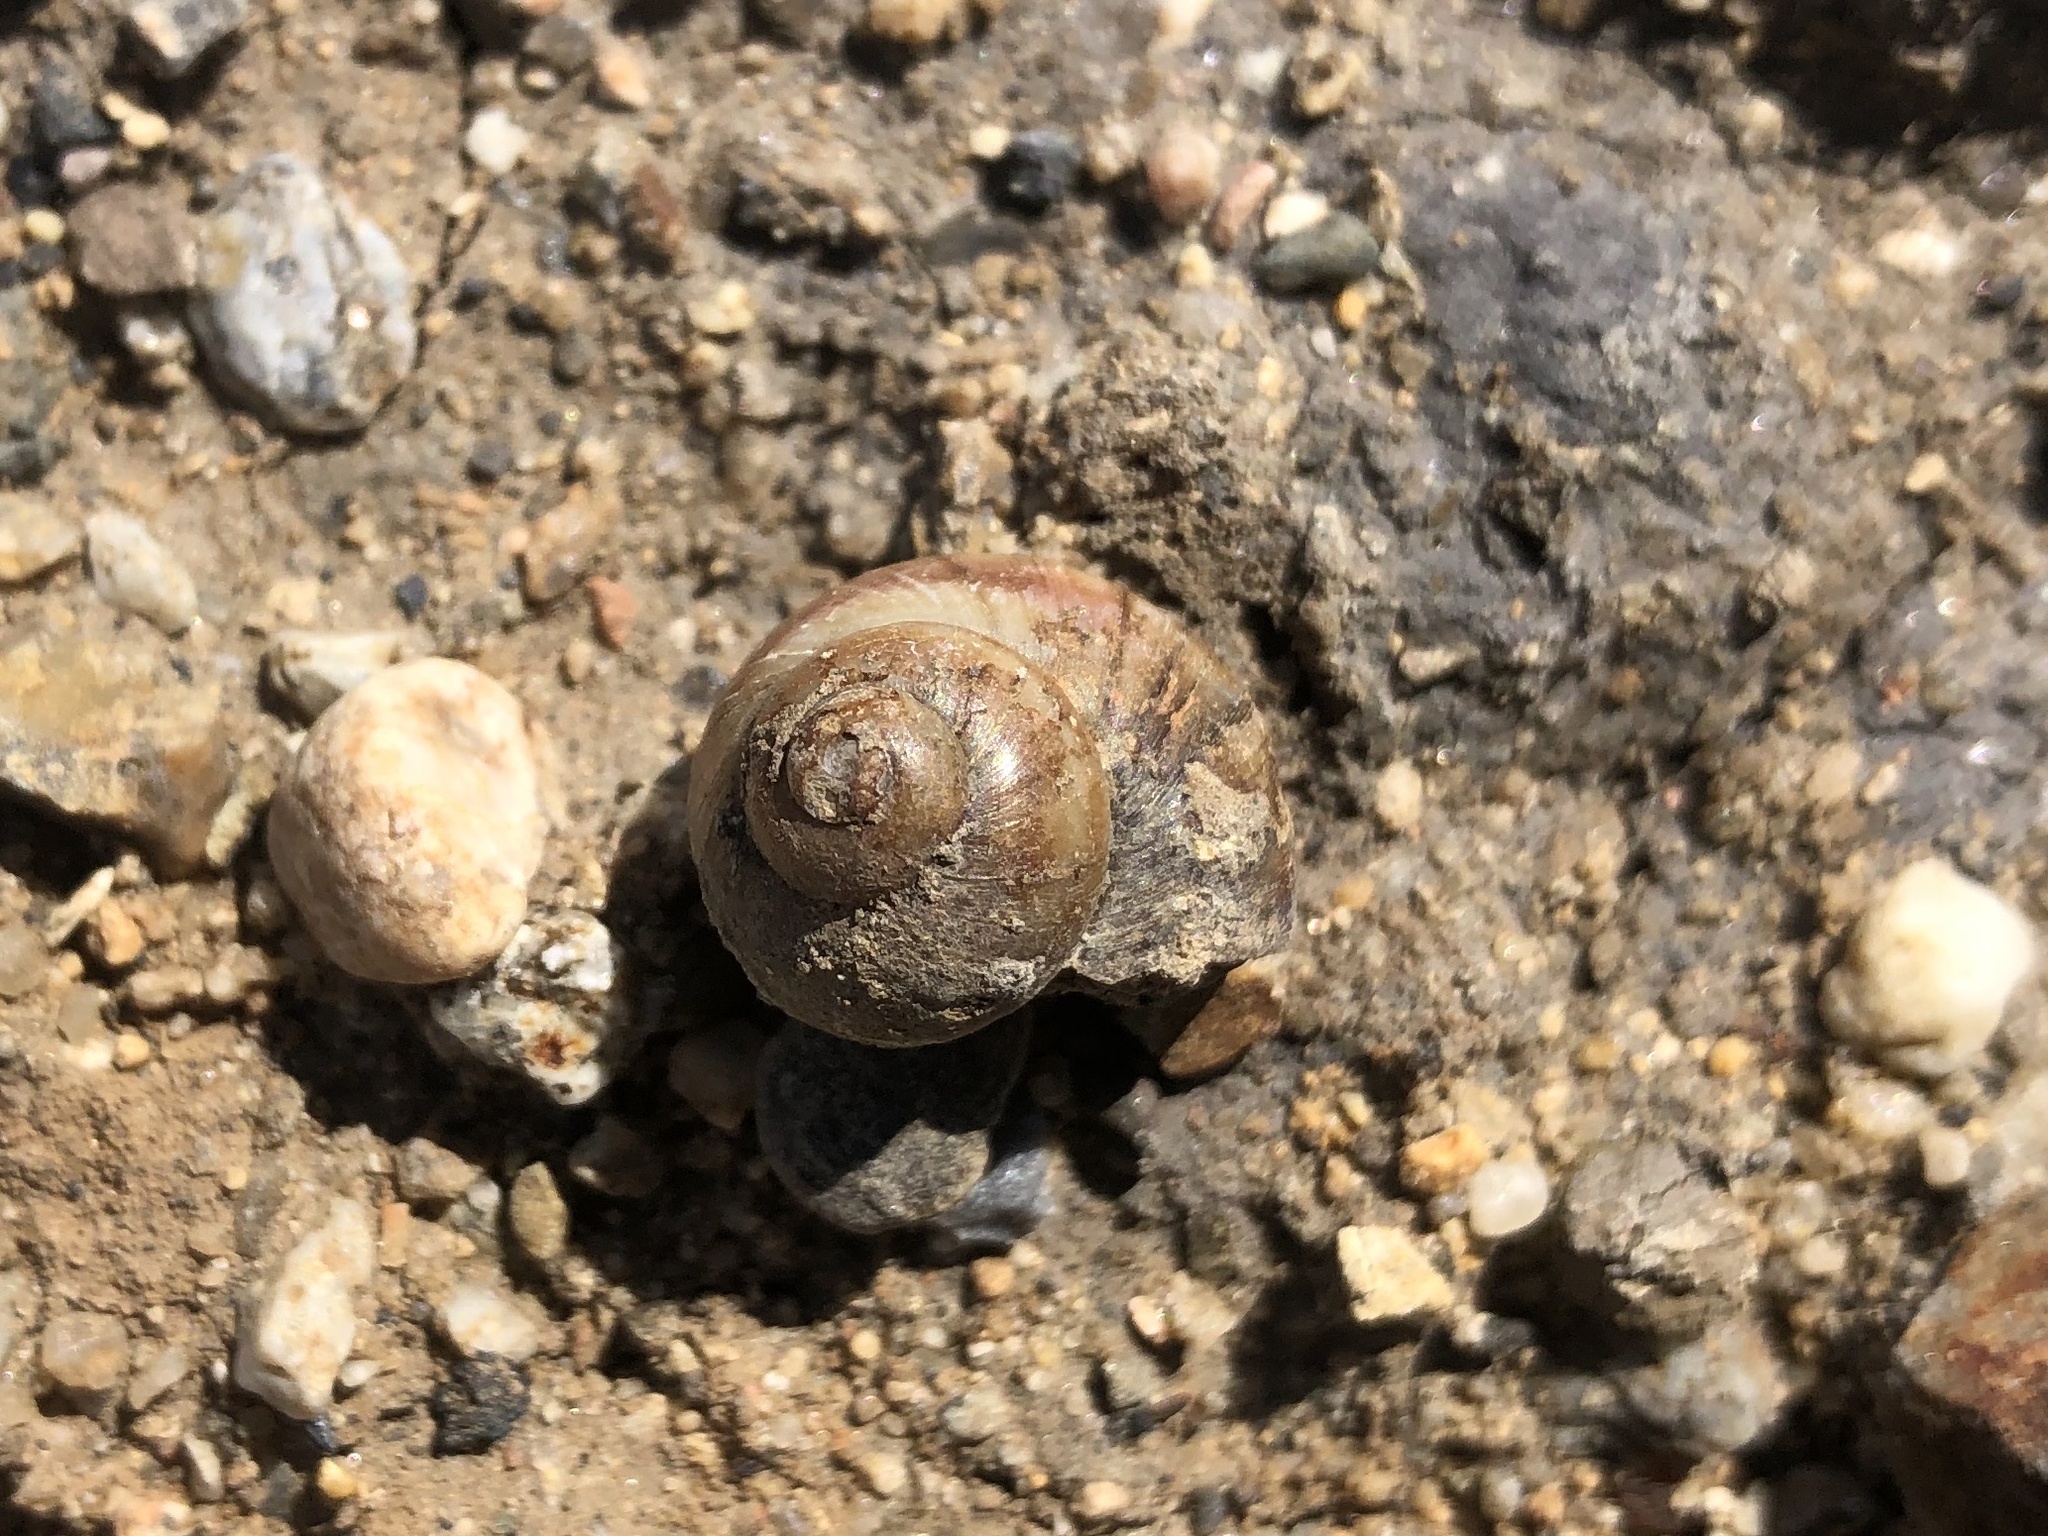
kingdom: Animalia
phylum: Mollusca
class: Gastropoda
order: Architaenioglossa
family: Viviparidae
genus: Viviparus
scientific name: Viviparus viviparus
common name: River snail
